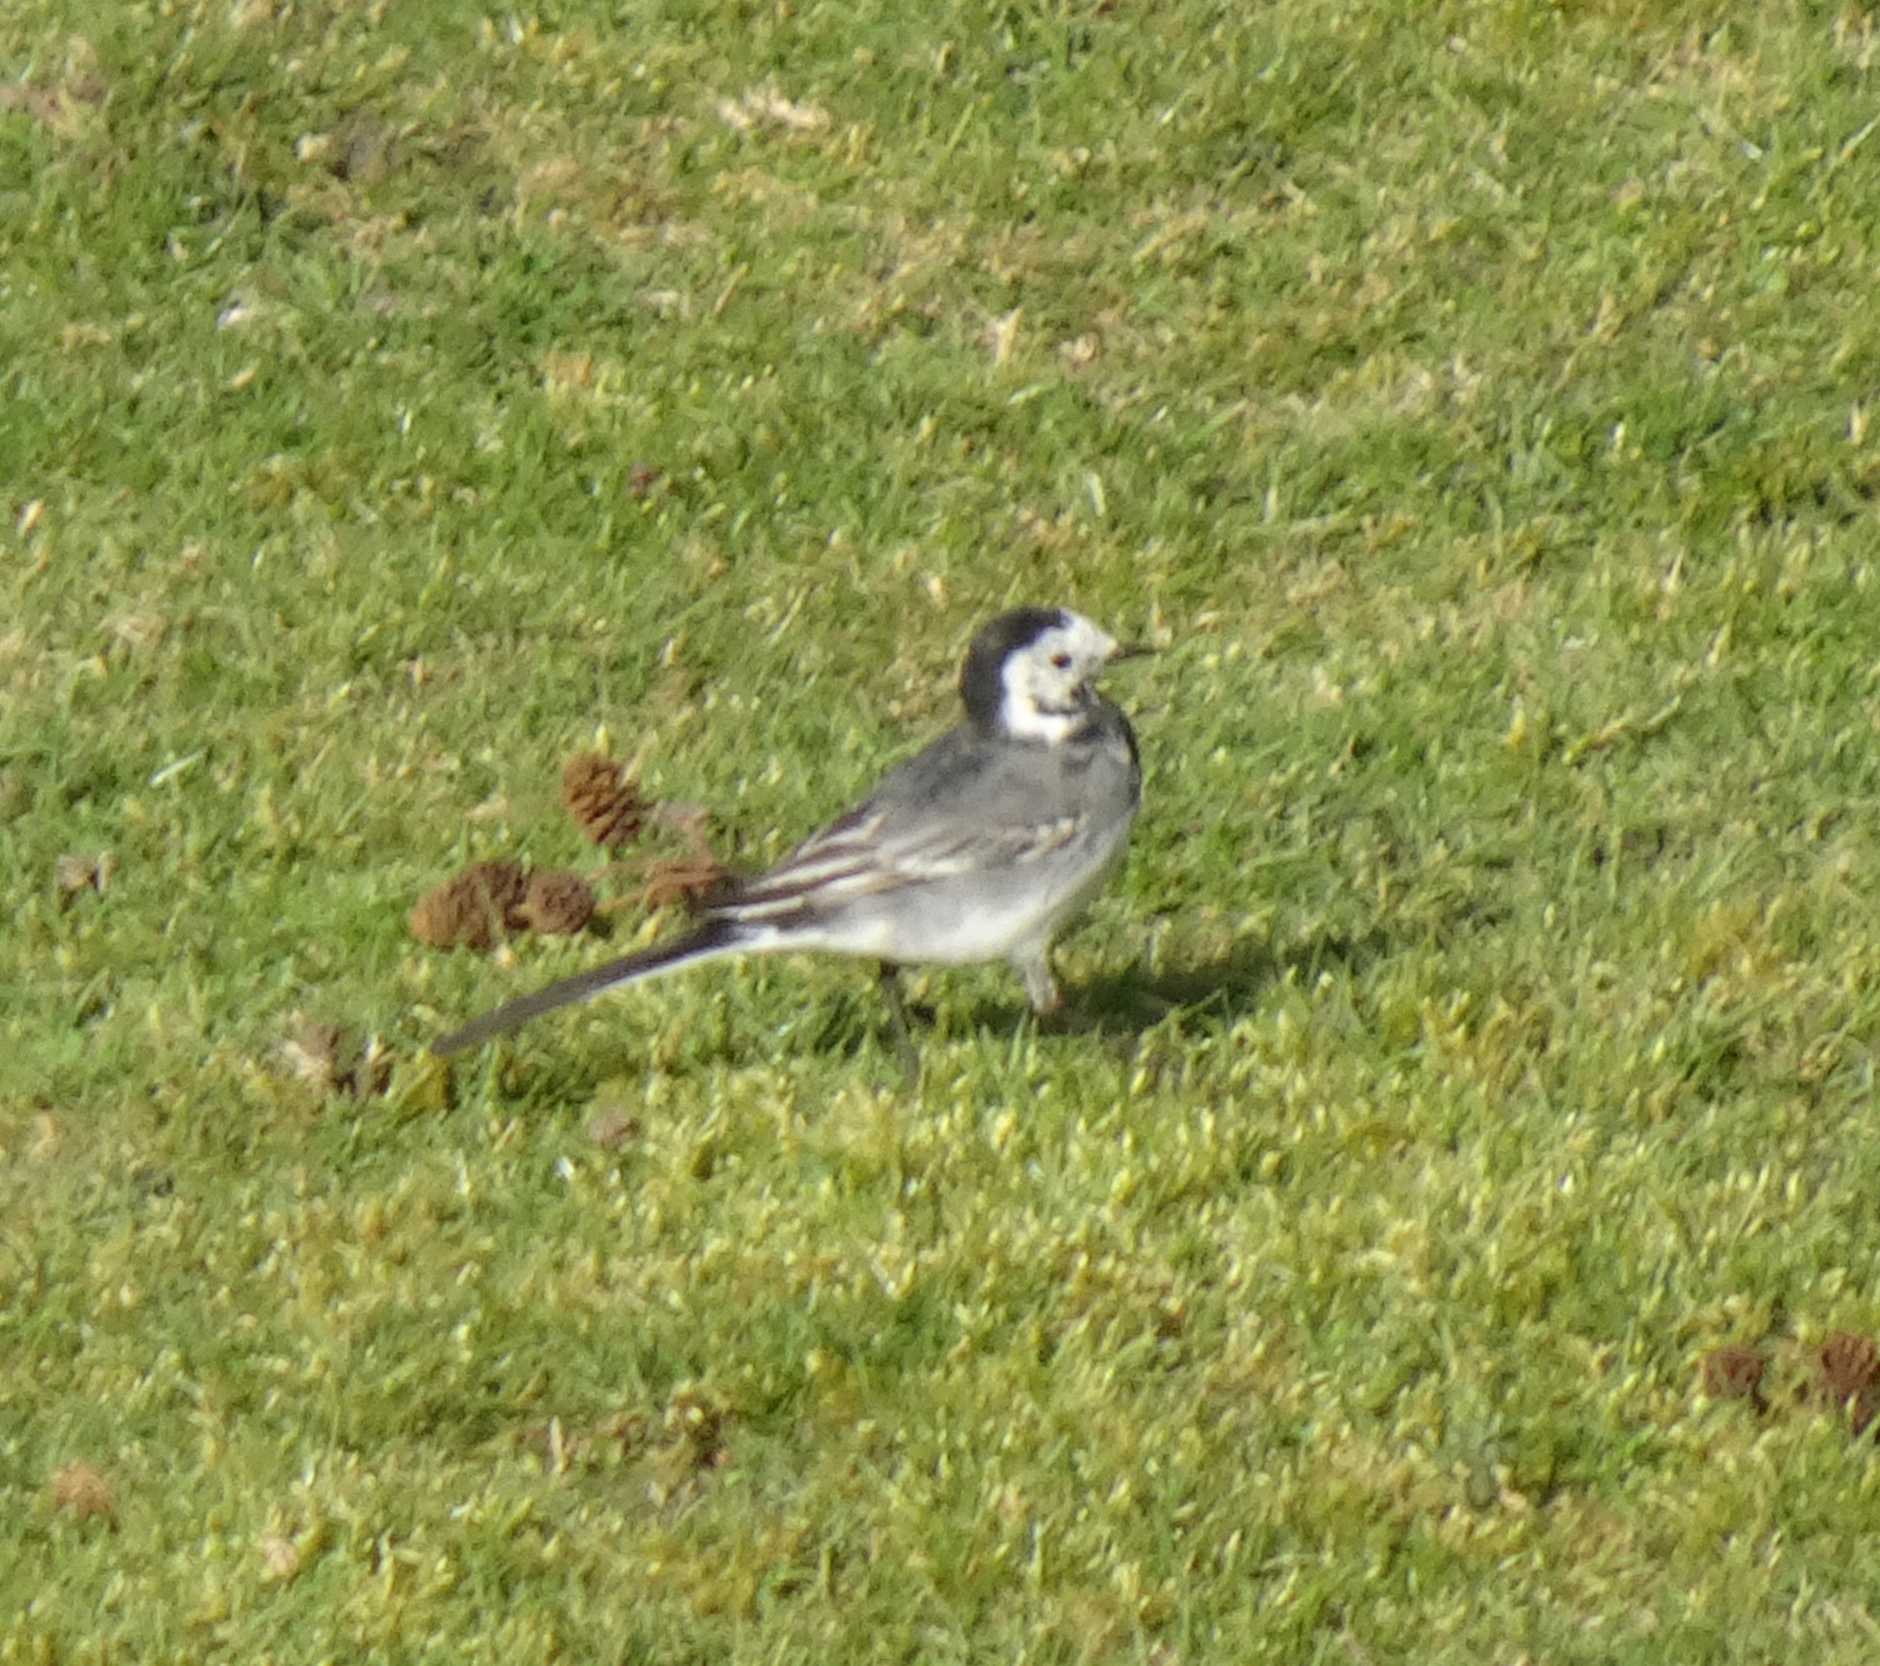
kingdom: Animalia
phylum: Chordata
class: Aves
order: Passeriformes
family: Motacillidae
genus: Motacilla
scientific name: Motacilla alba
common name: White wagtail
